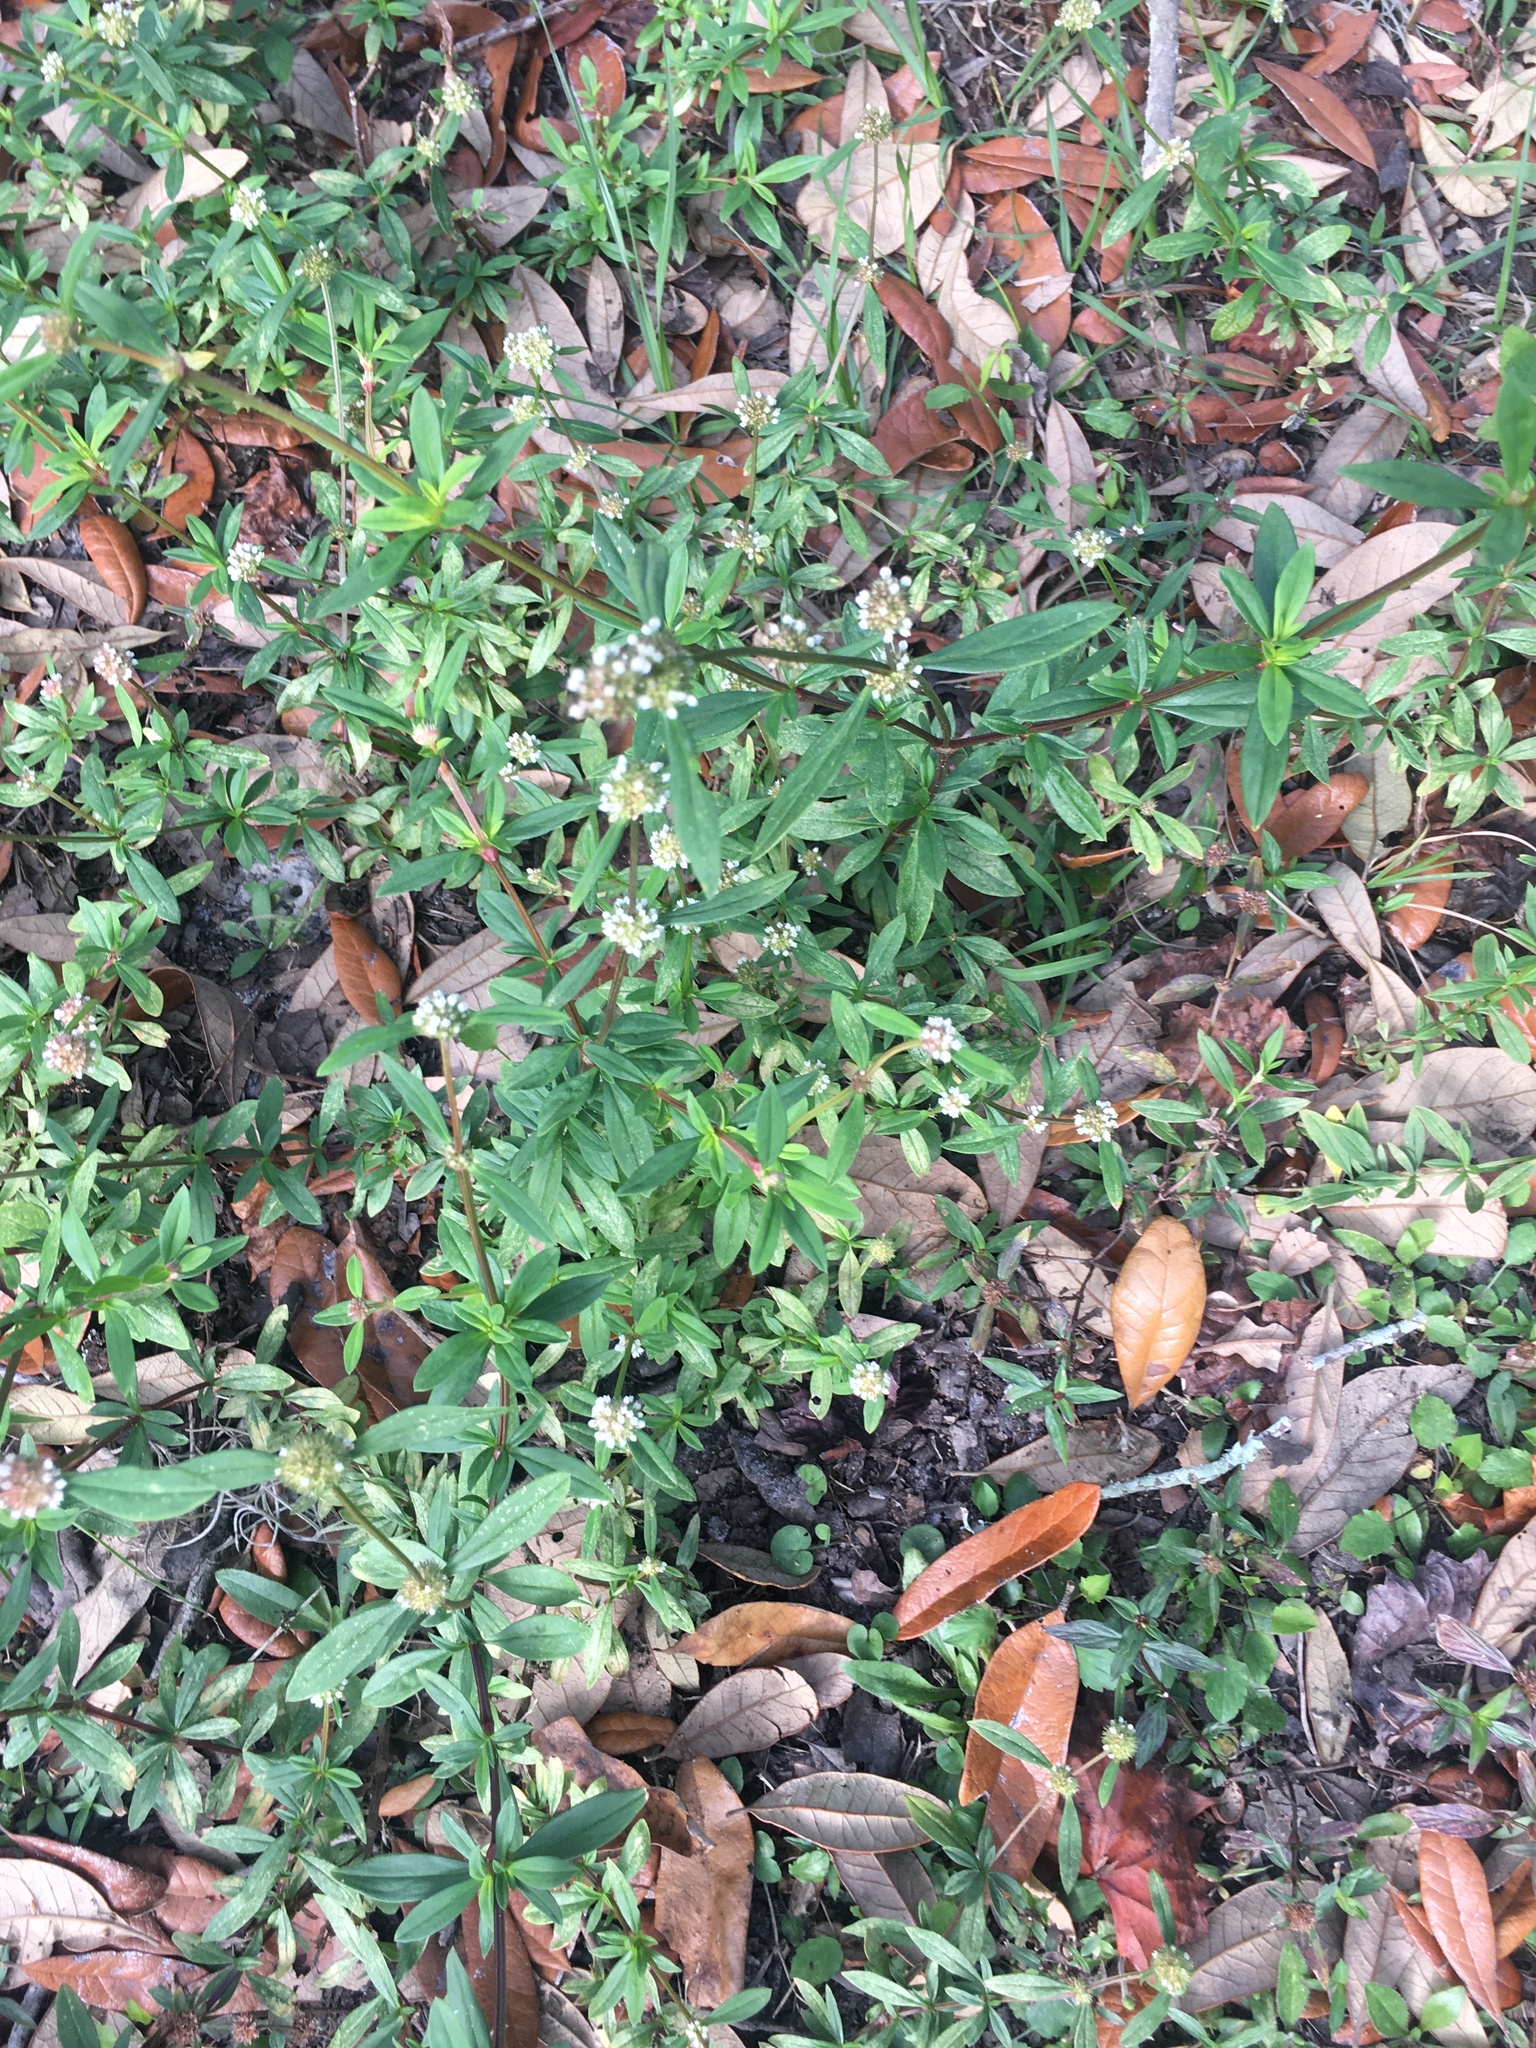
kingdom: Plantae
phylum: Tracheophyta
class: Magnoliopsida
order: Gentianales
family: Rubiaceae
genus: Spermacoce
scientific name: Spermacoce verticillata
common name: Shrubby false buttonweed
